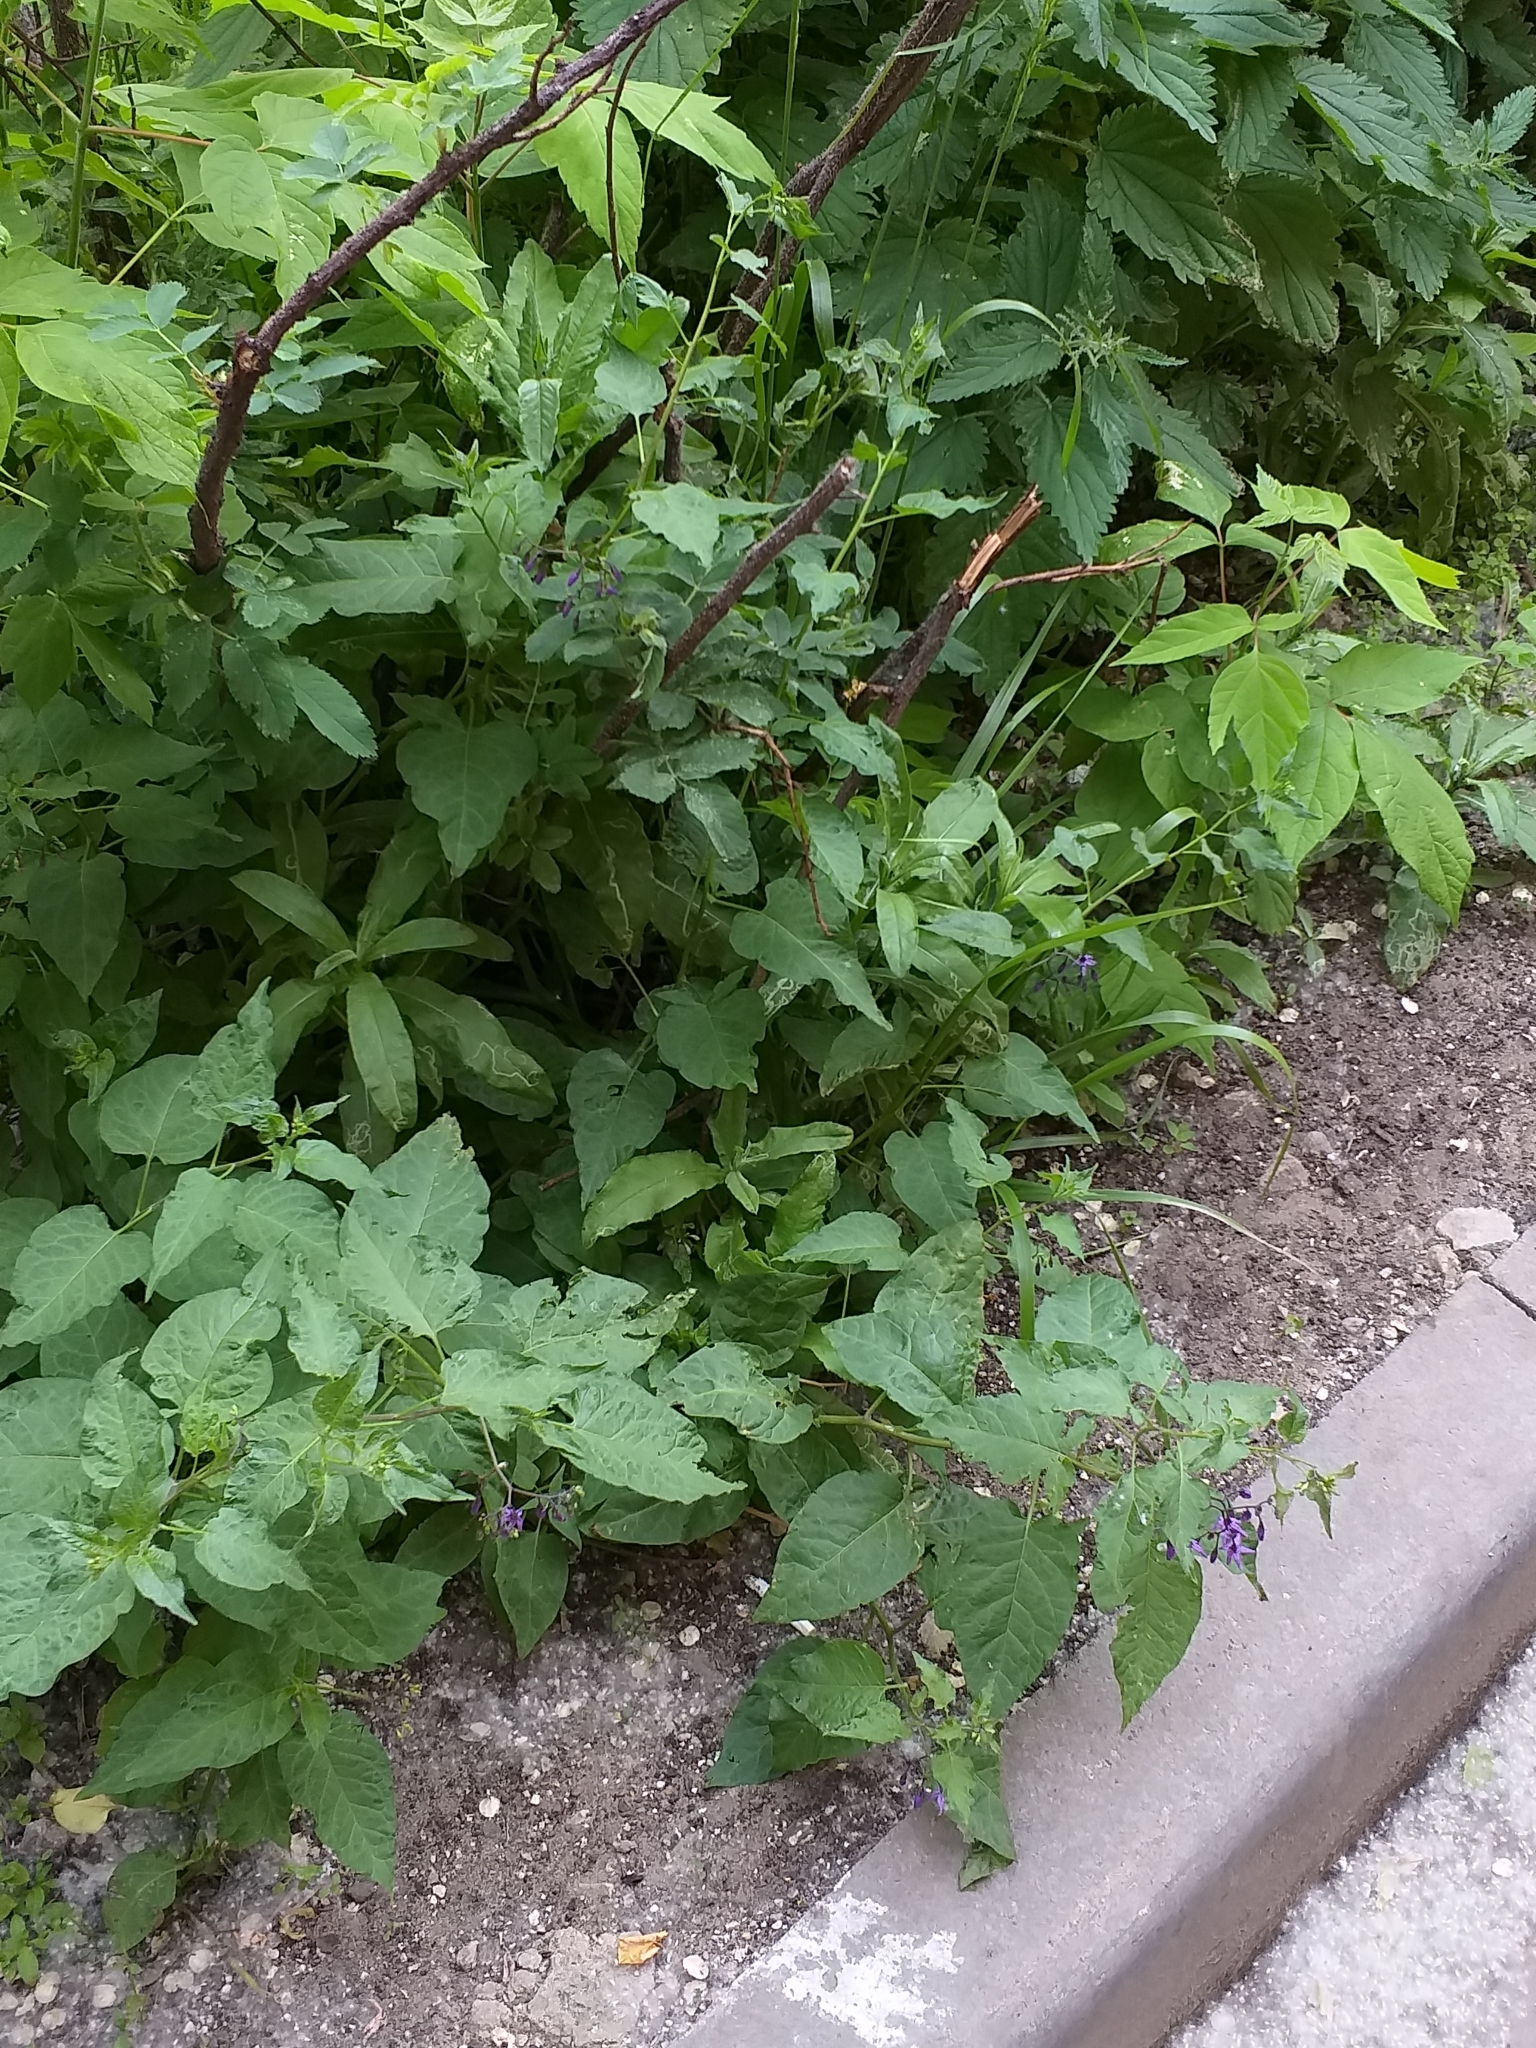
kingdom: Plantae
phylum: Tracheophyta
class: Magnoliopsida
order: Solanales
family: Solanaceae
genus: Solanum
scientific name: Solanum dulcamara
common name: Climbing nightshade
